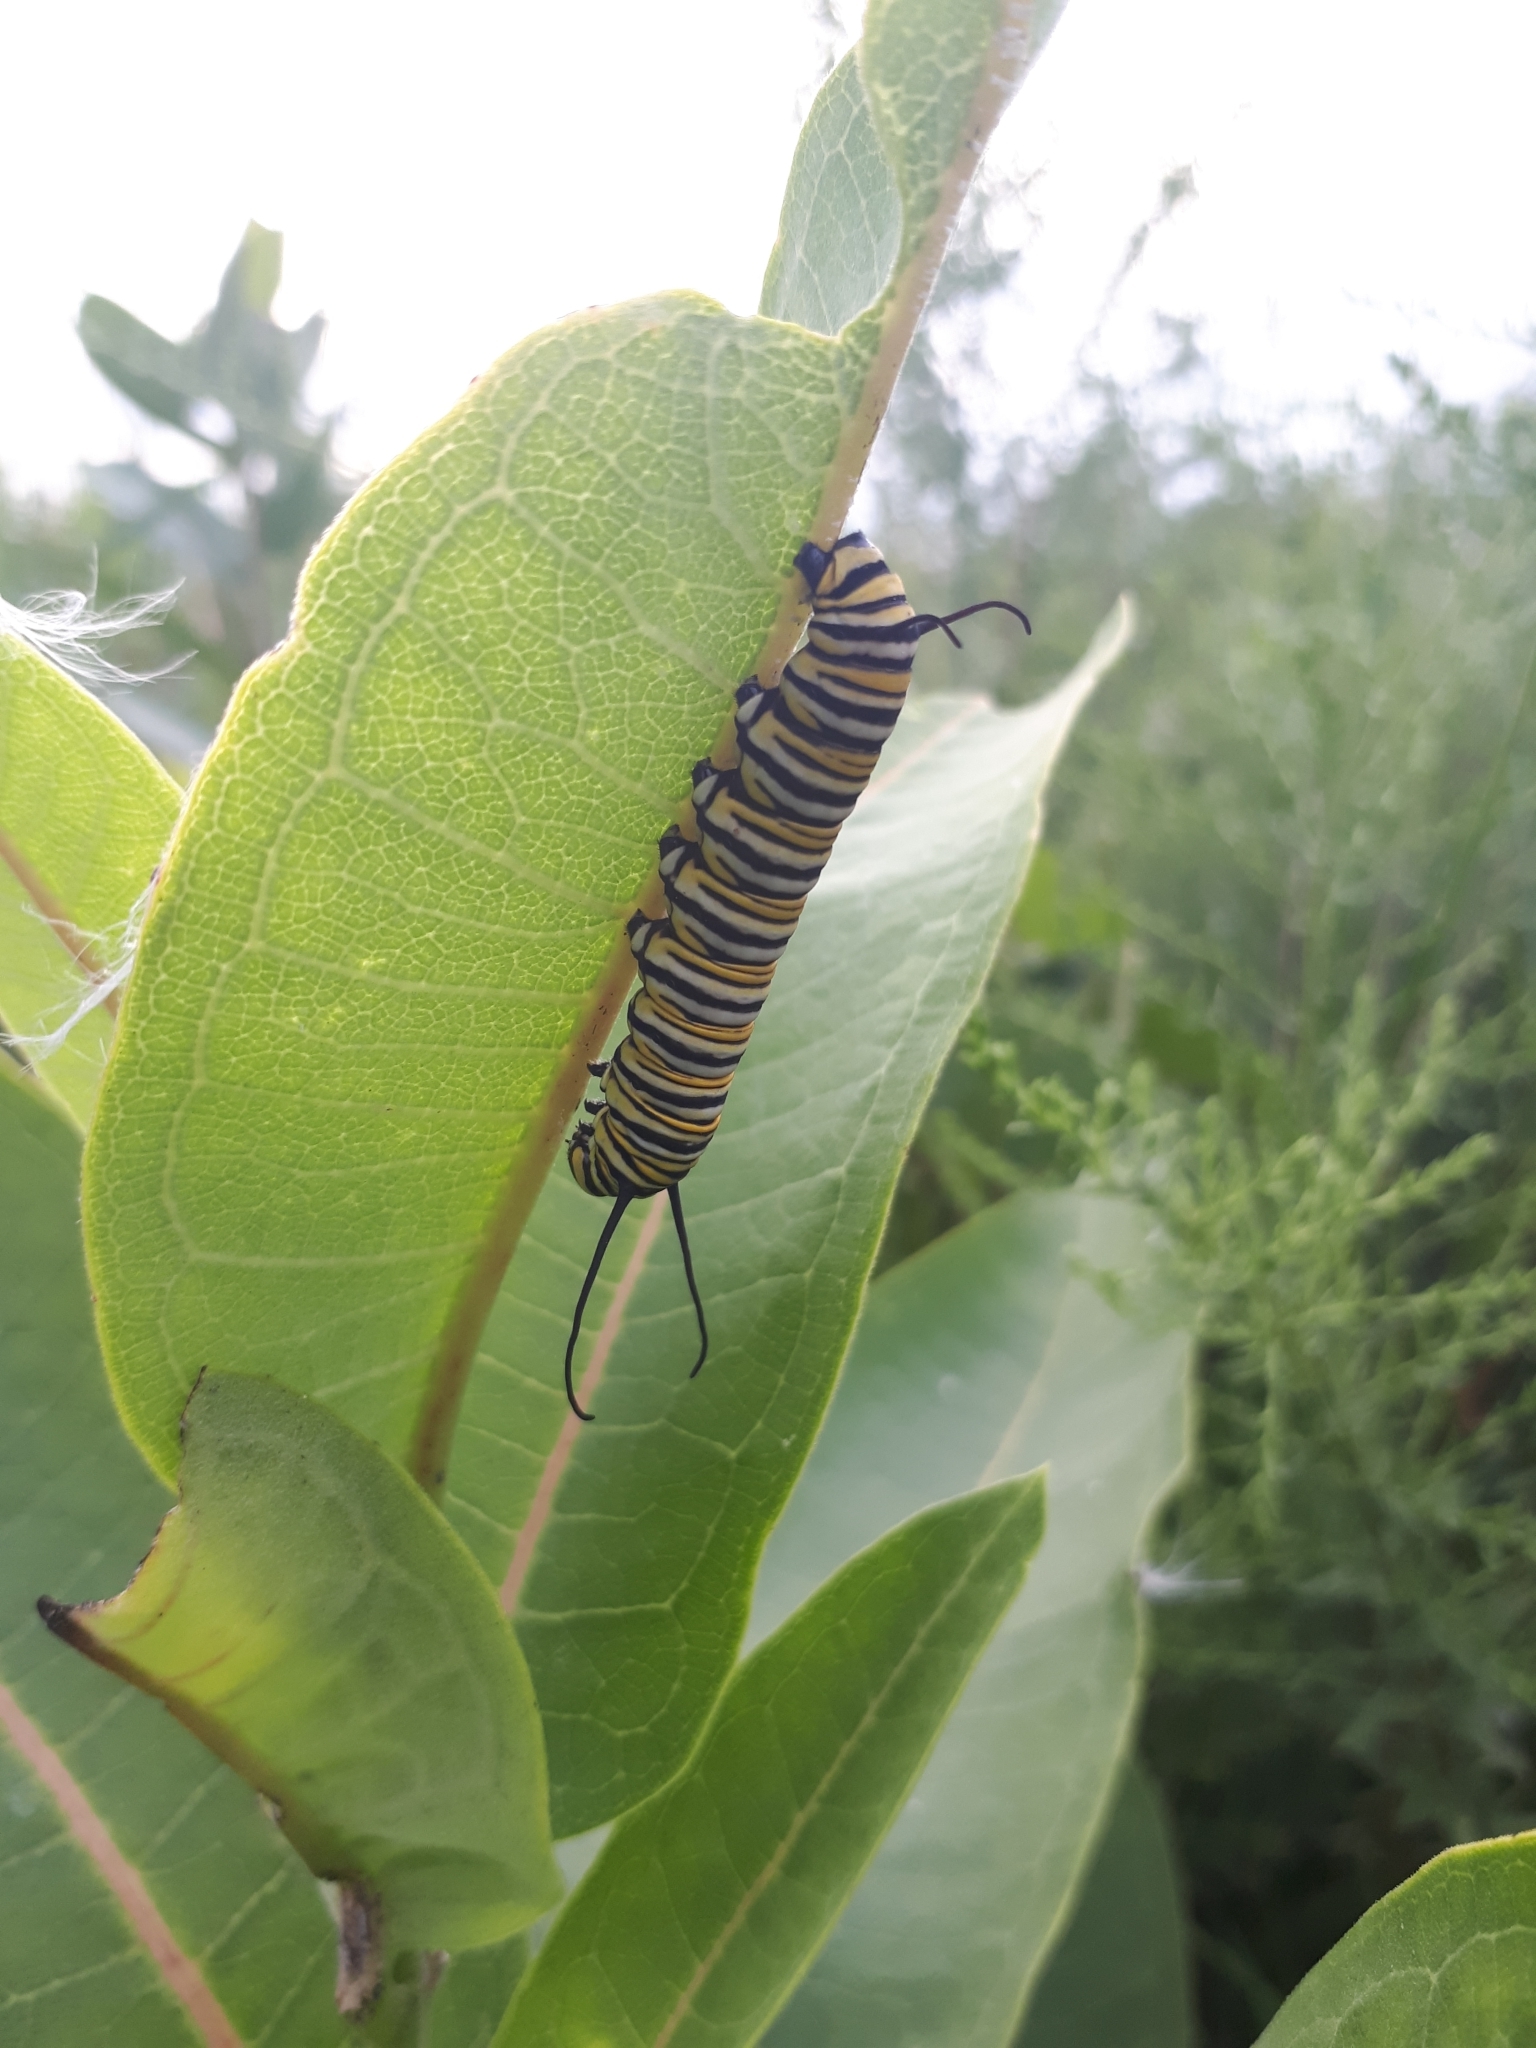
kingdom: Animalia
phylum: Arthropoda
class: Insecta
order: Lepidoptera
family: Nymphalidae
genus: Danaus
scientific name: Danaus plexippus
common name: Monarch
